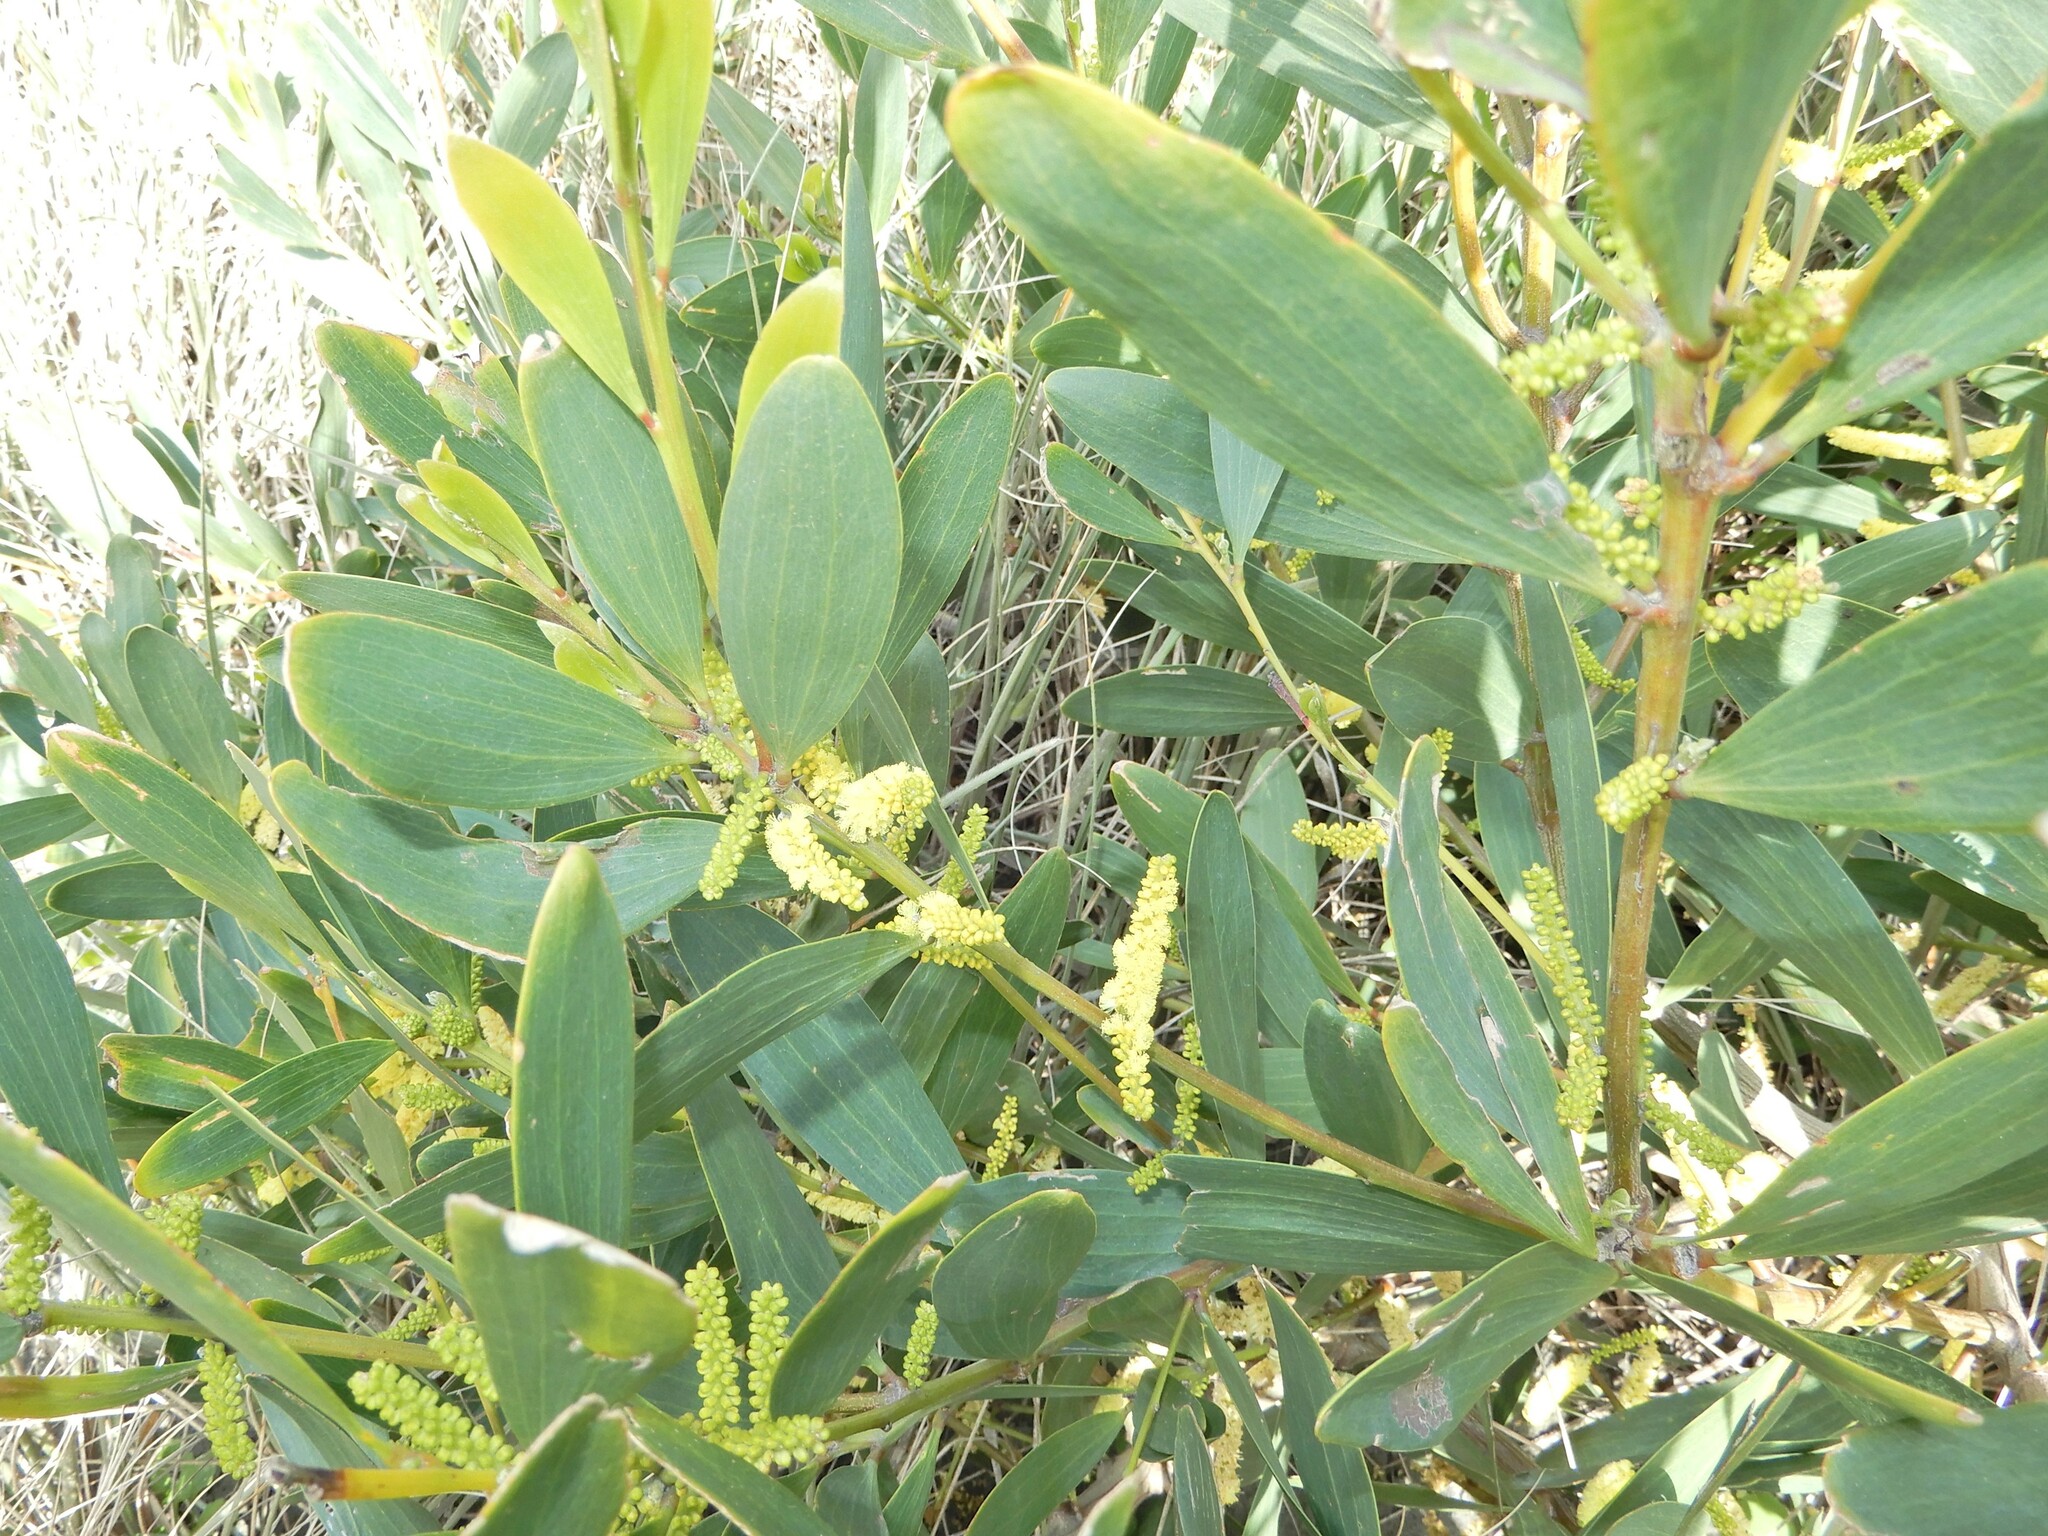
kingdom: Plantae
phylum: Tracheophyta
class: Magnoliopsida
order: Fabales
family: Fabaceae
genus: Acacia
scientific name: Acacia longifolia
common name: Sydney golden wattle
